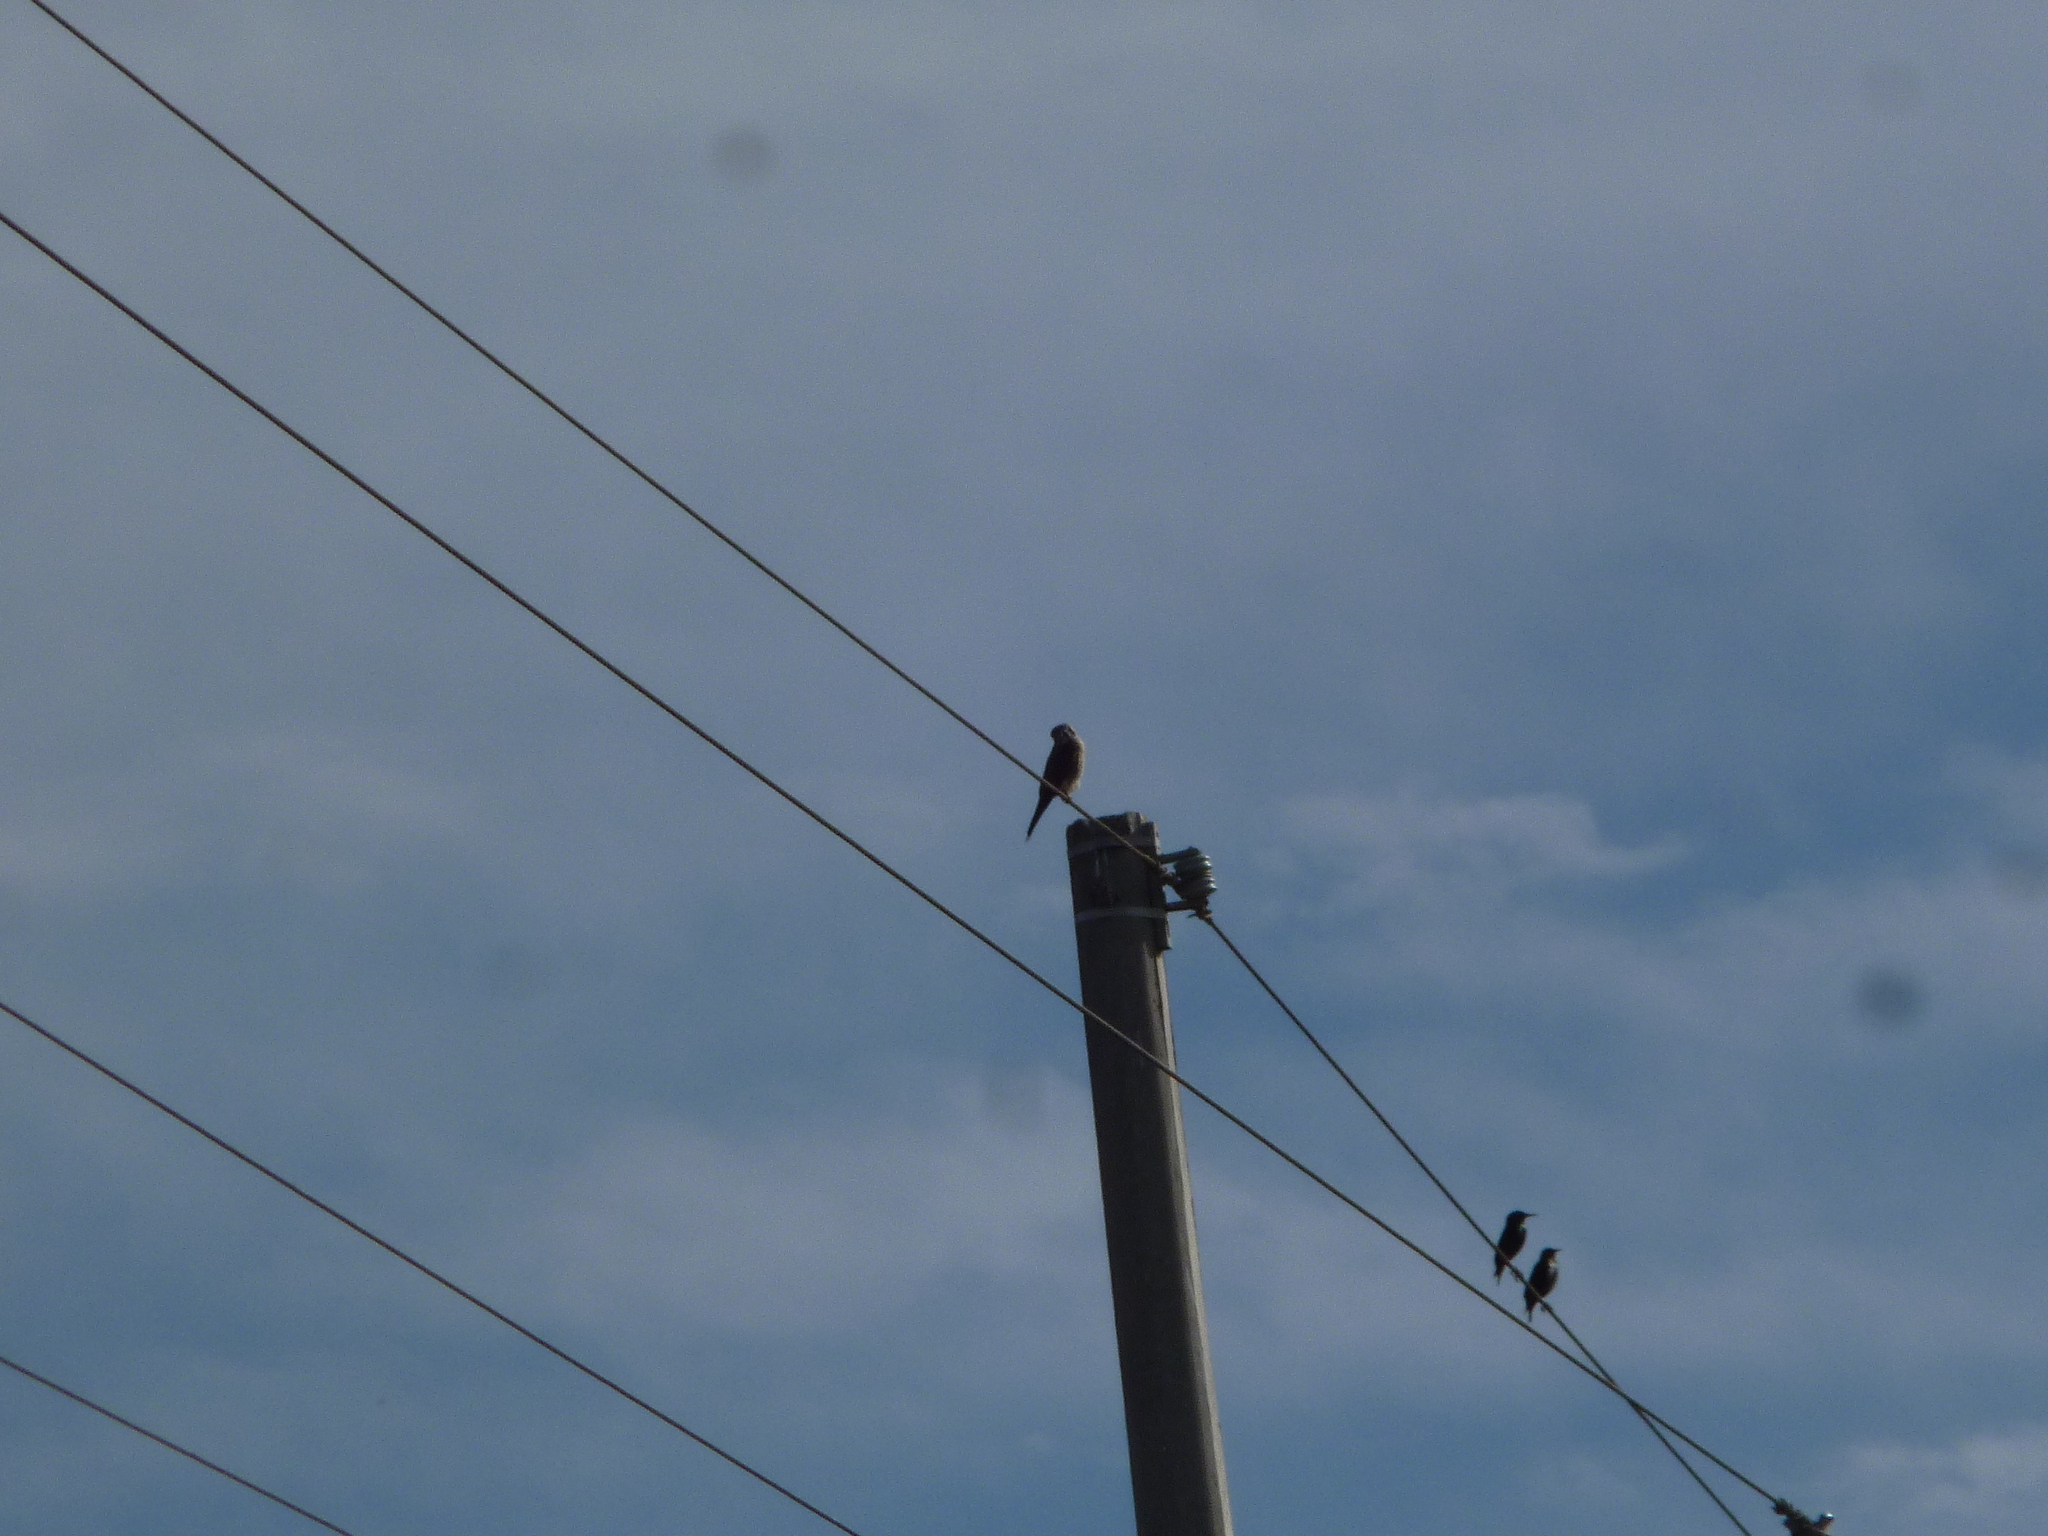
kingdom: Animalia
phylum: Chordata
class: Aves
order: Falconiformes
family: Falconidae
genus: Falco
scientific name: Falco sparverius
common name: American kestrel
